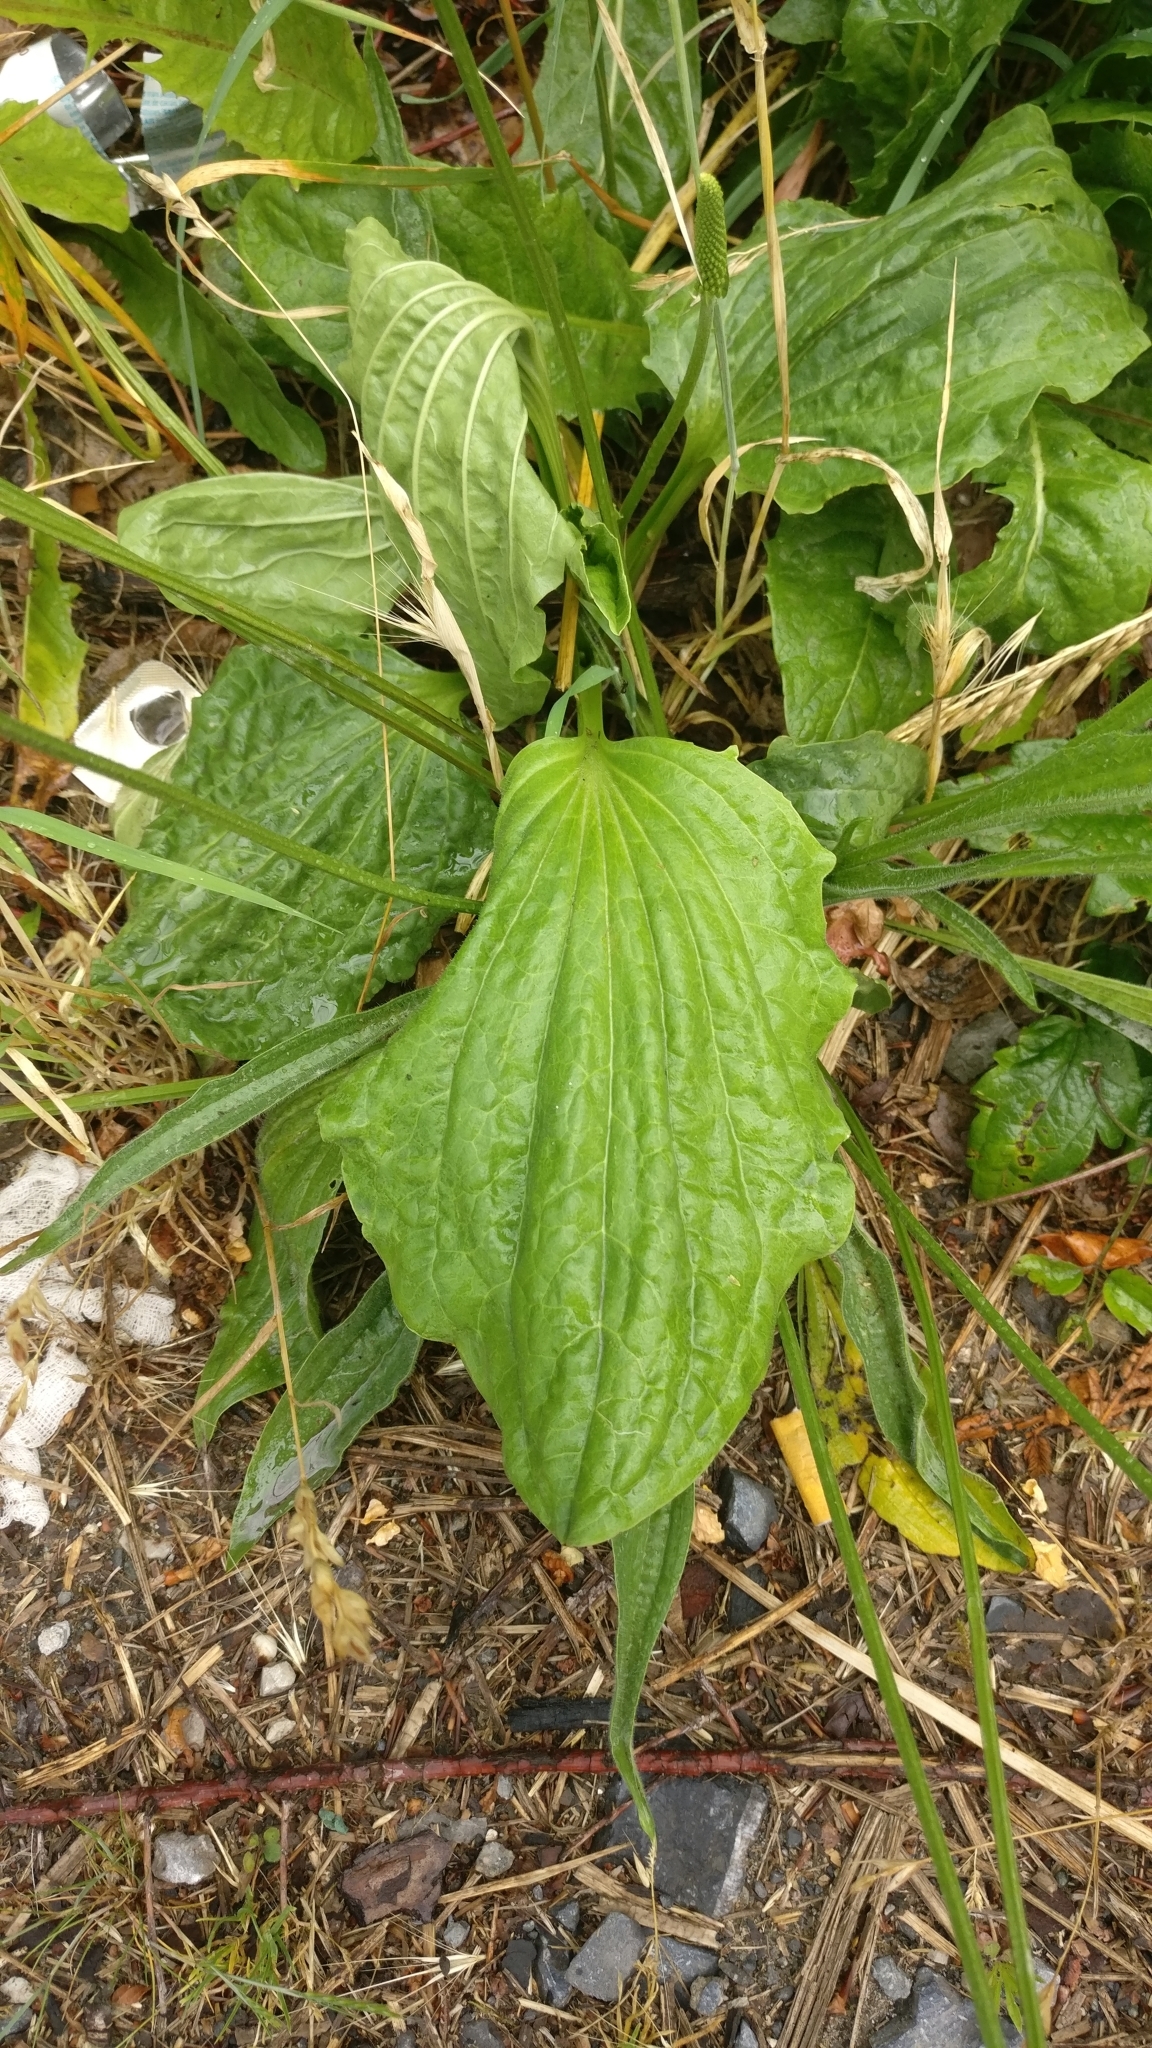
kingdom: Plantae
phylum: Tracheophyta
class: Magnoliopsida
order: Lamiales
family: Plantaginaceae
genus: Plantago
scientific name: Plantago major
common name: Common plantain
